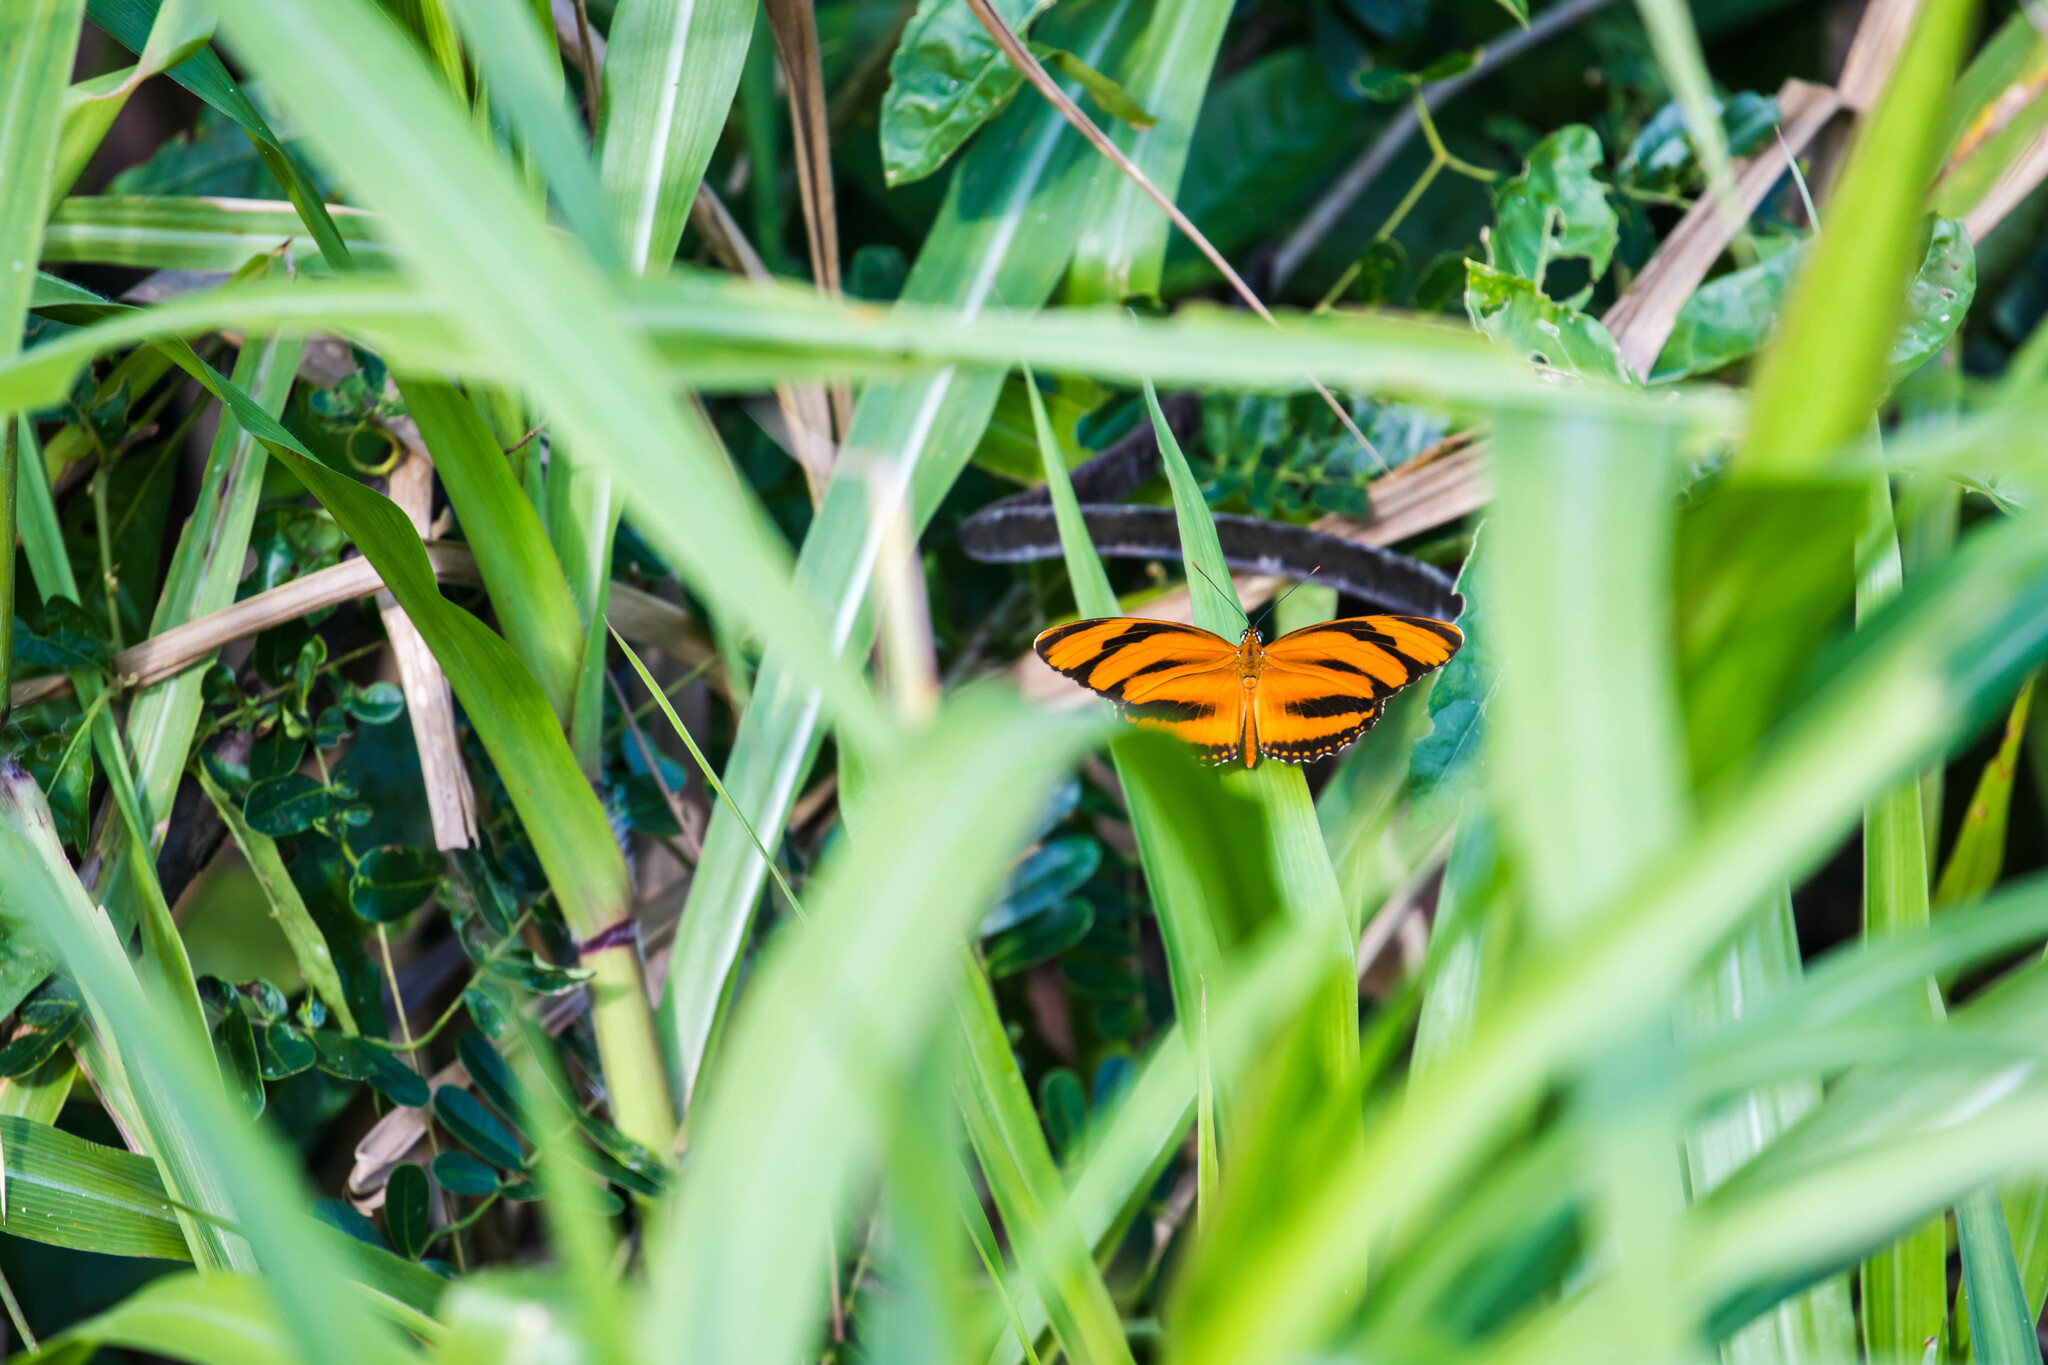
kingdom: Animalia
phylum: Arthropoda
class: Insecta
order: Lepidoptera
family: Nymphalidae
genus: Dryadula
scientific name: Dryadula phaetusa
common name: Banded orange heliconian
